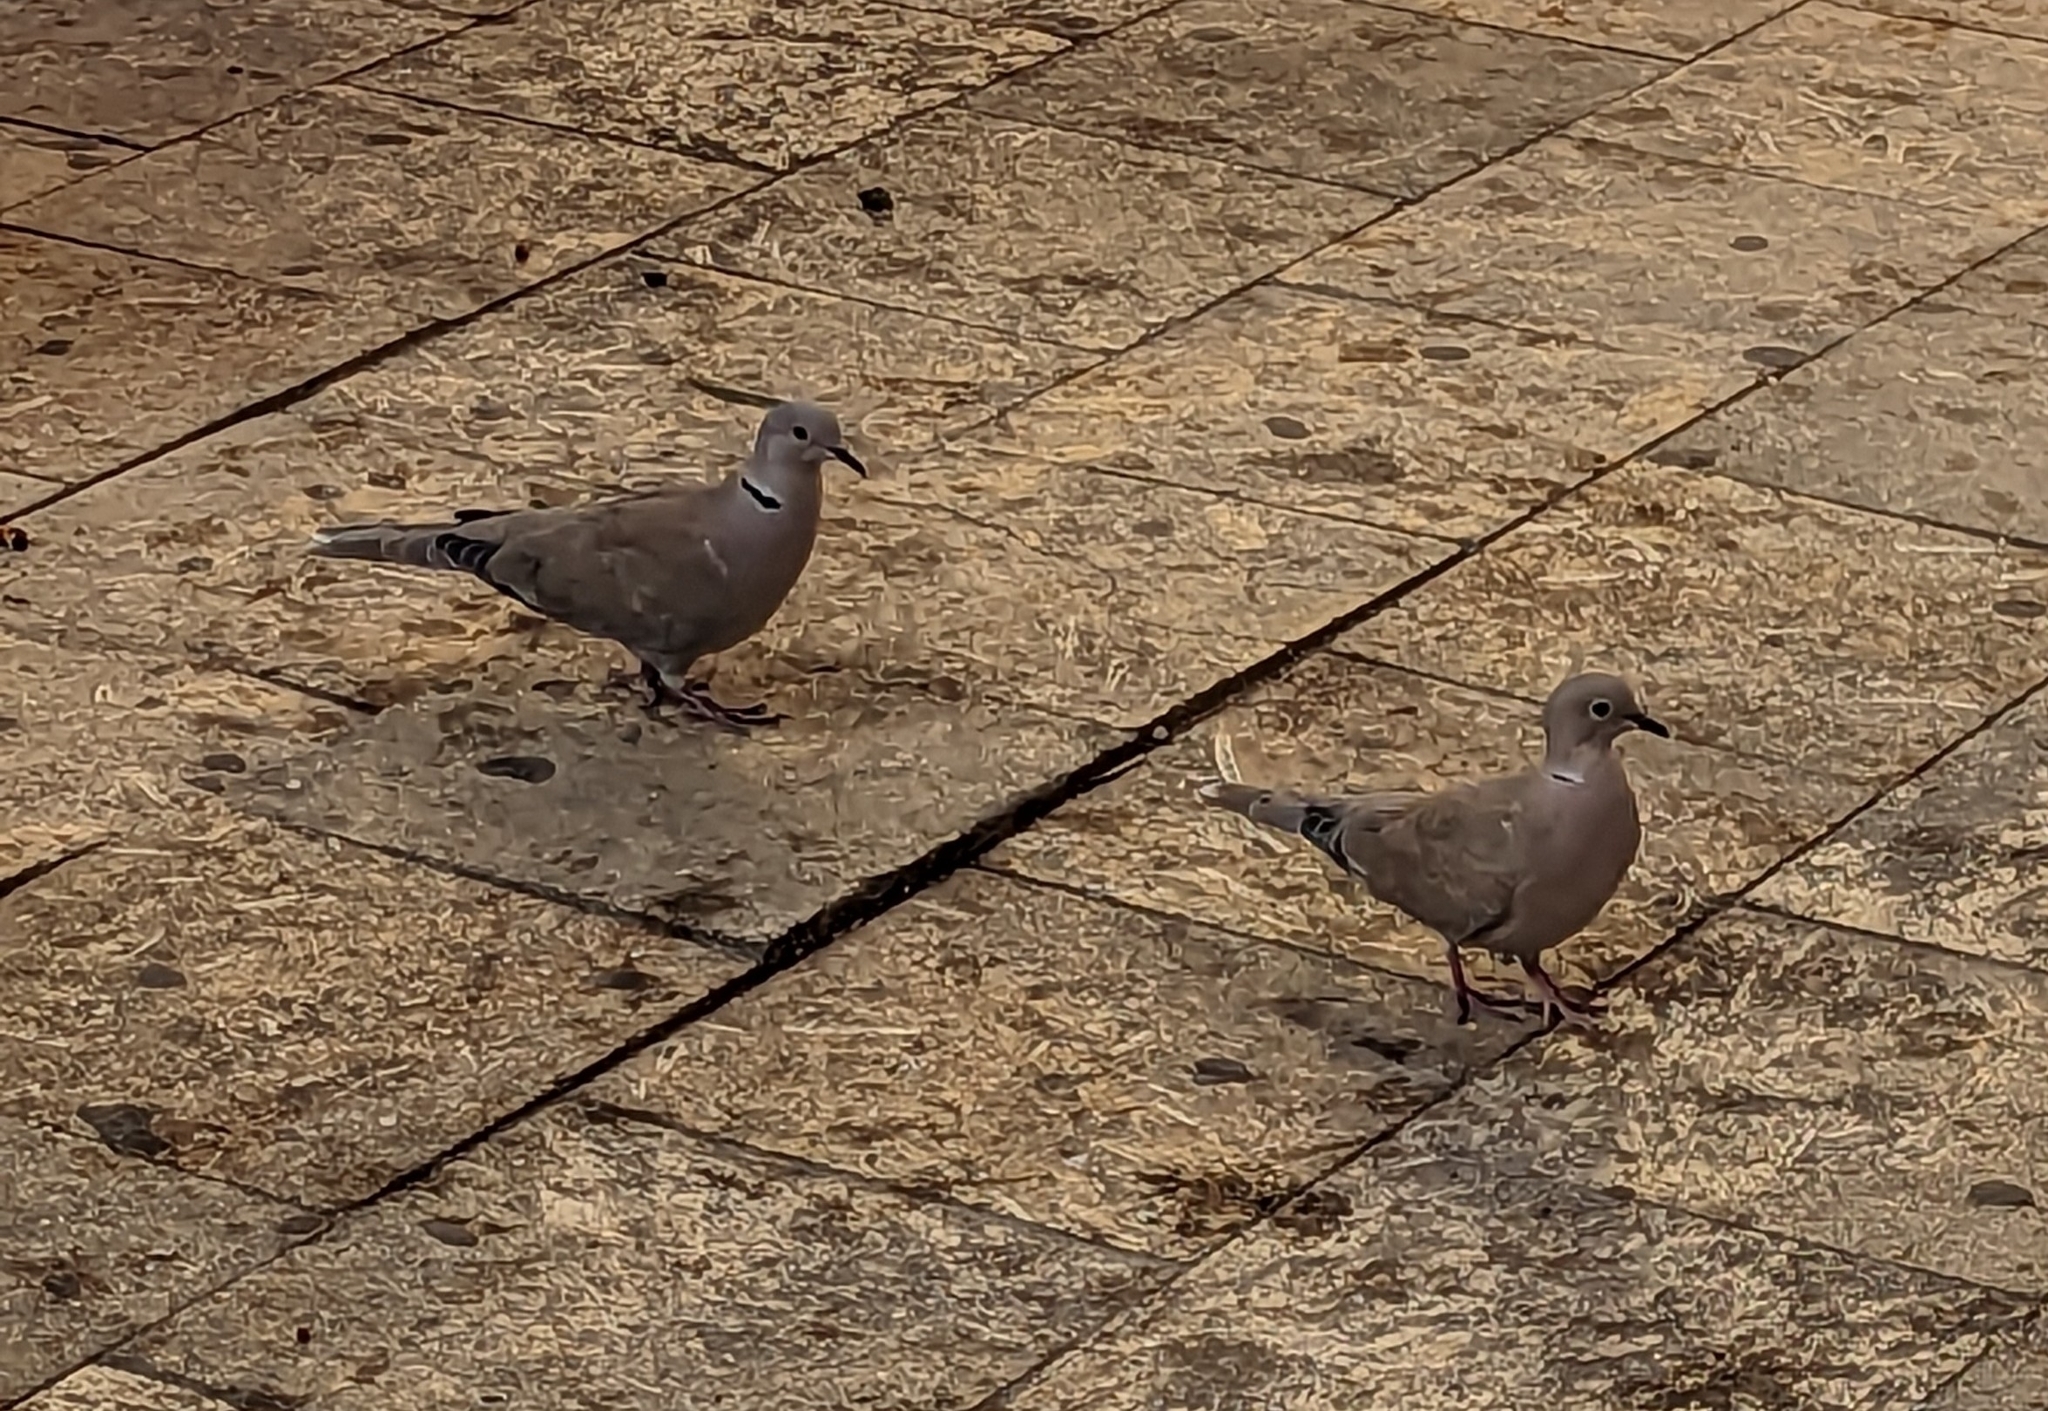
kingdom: Animalia
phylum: Chordata
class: Aves
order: Columbiformes
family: Columbidae
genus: Streptopelia
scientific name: Streptopelia decaocto
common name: Eurasian collared dove
